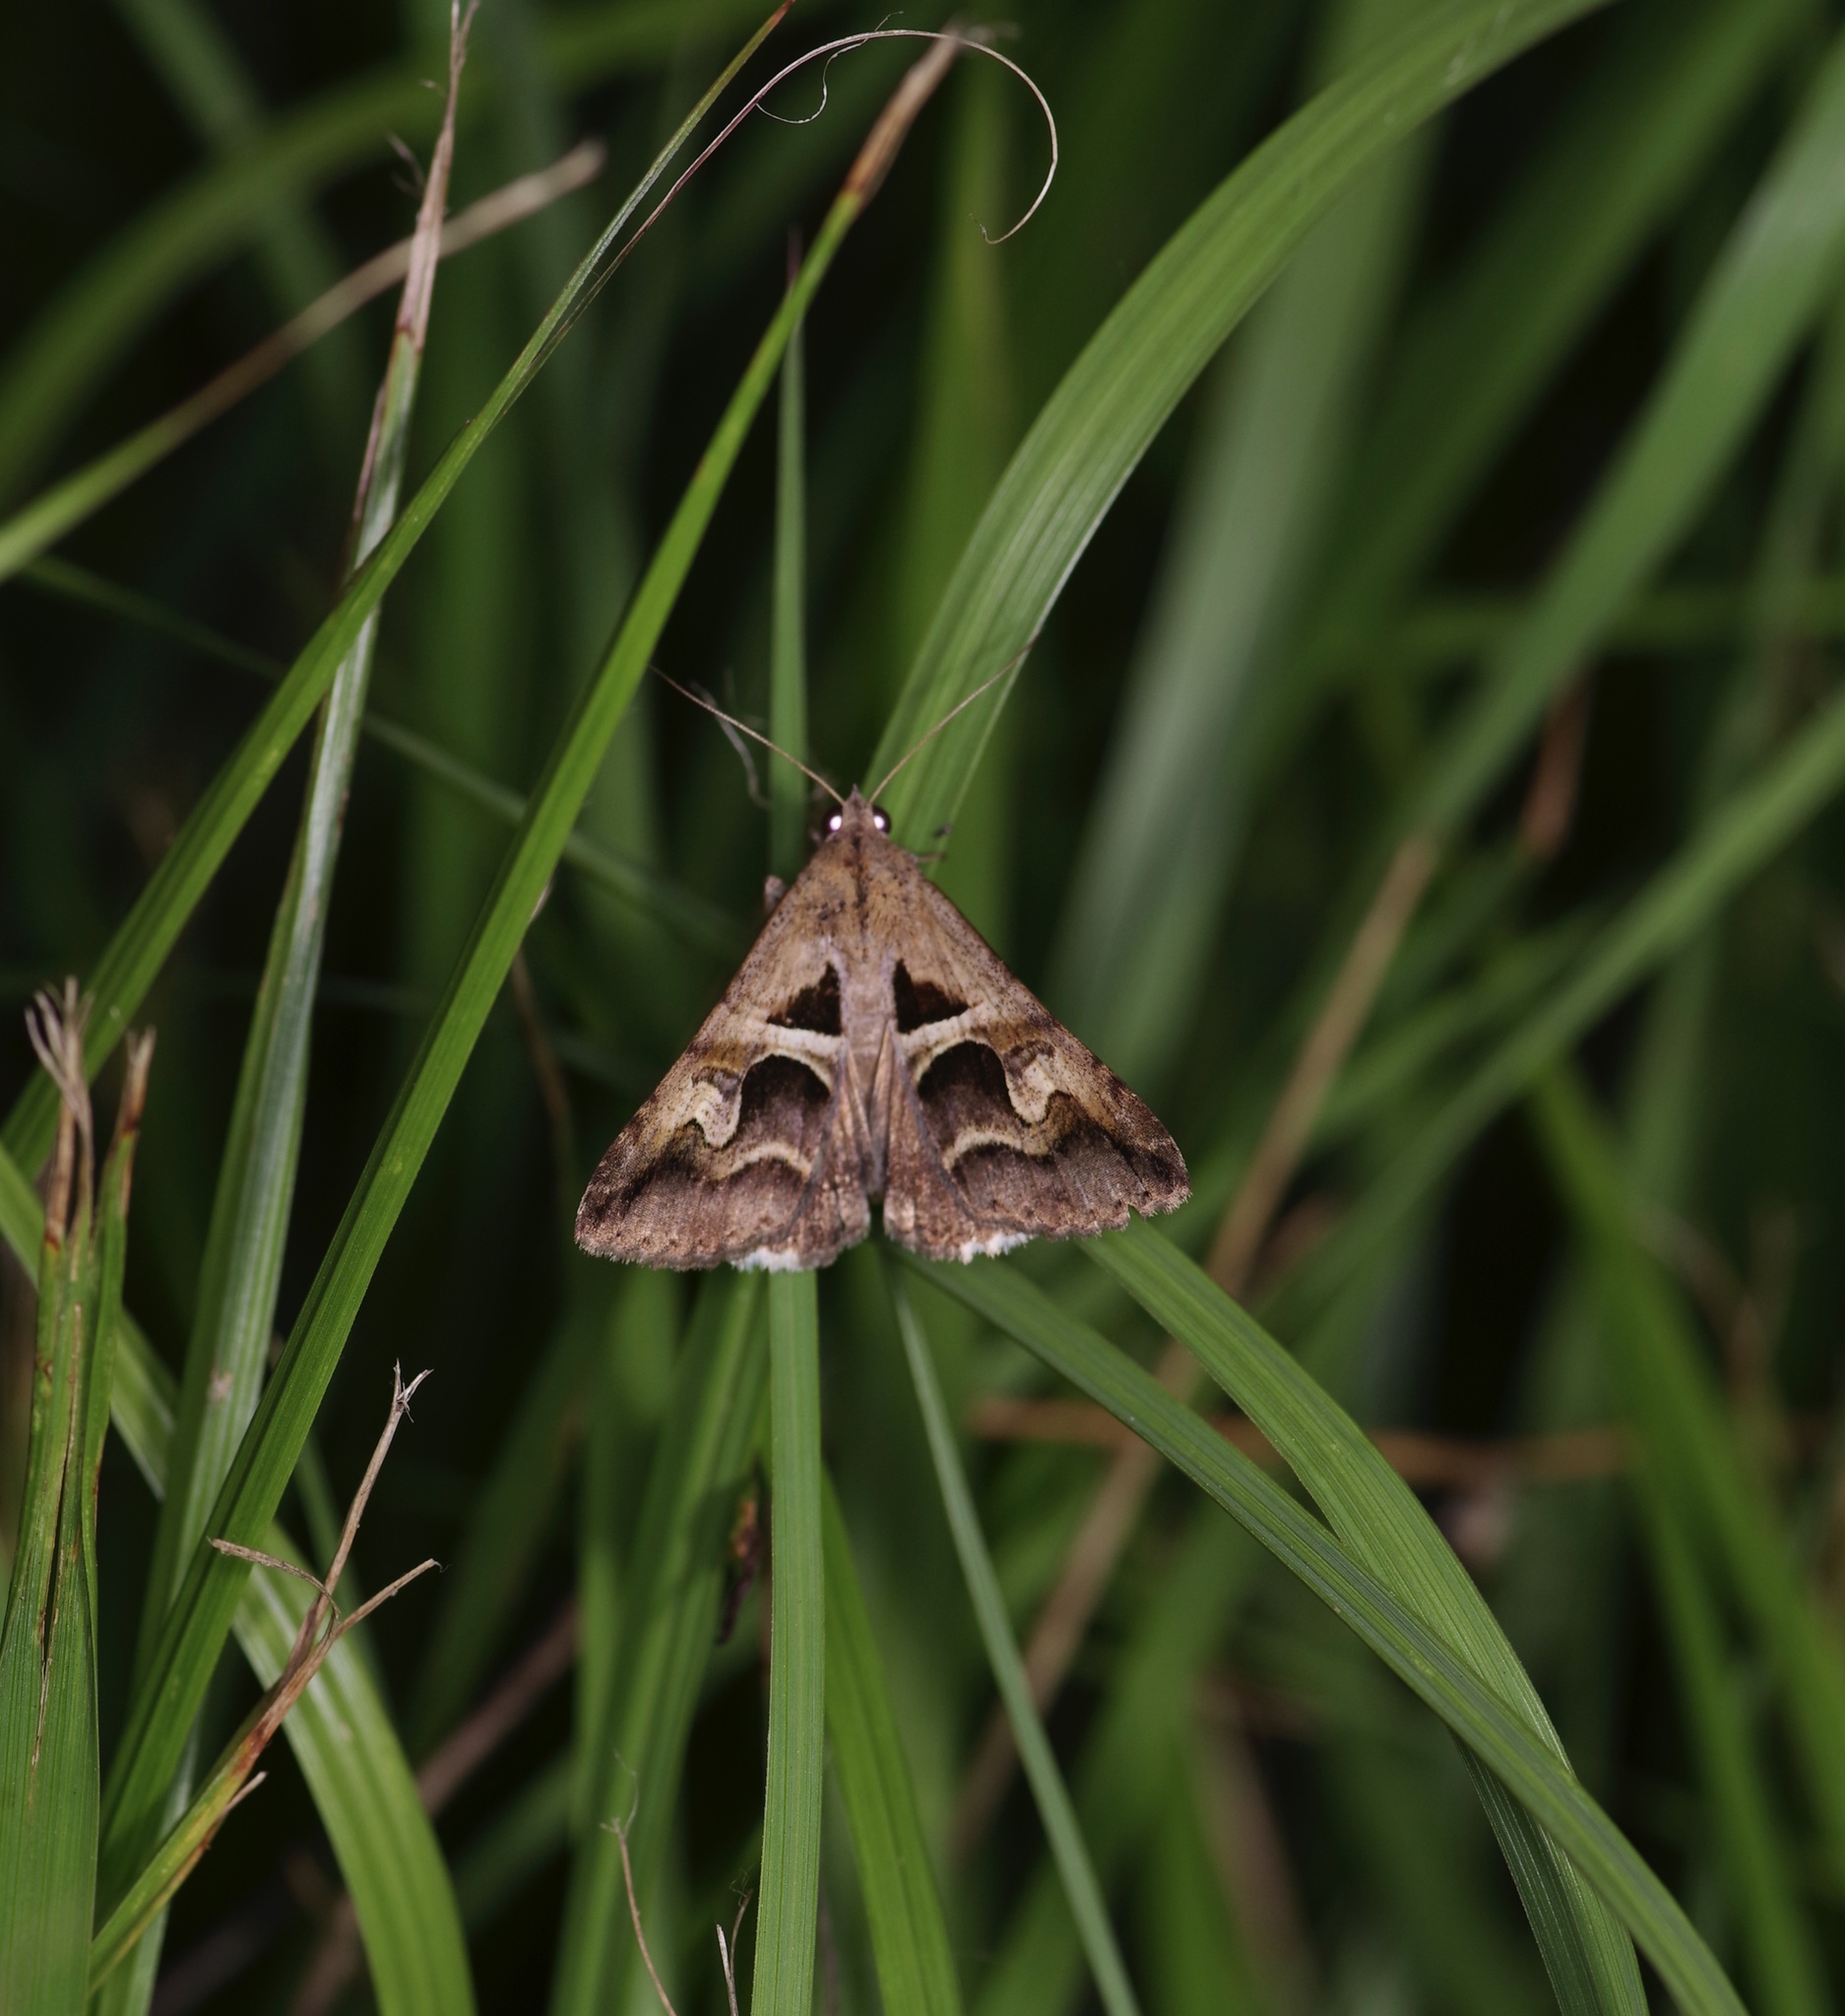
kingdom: Animalia
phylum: Arthropoda
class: Insecta
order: Lepidoptera
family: Erebidae
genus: Melipotis
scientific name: Melipotis cellaris
